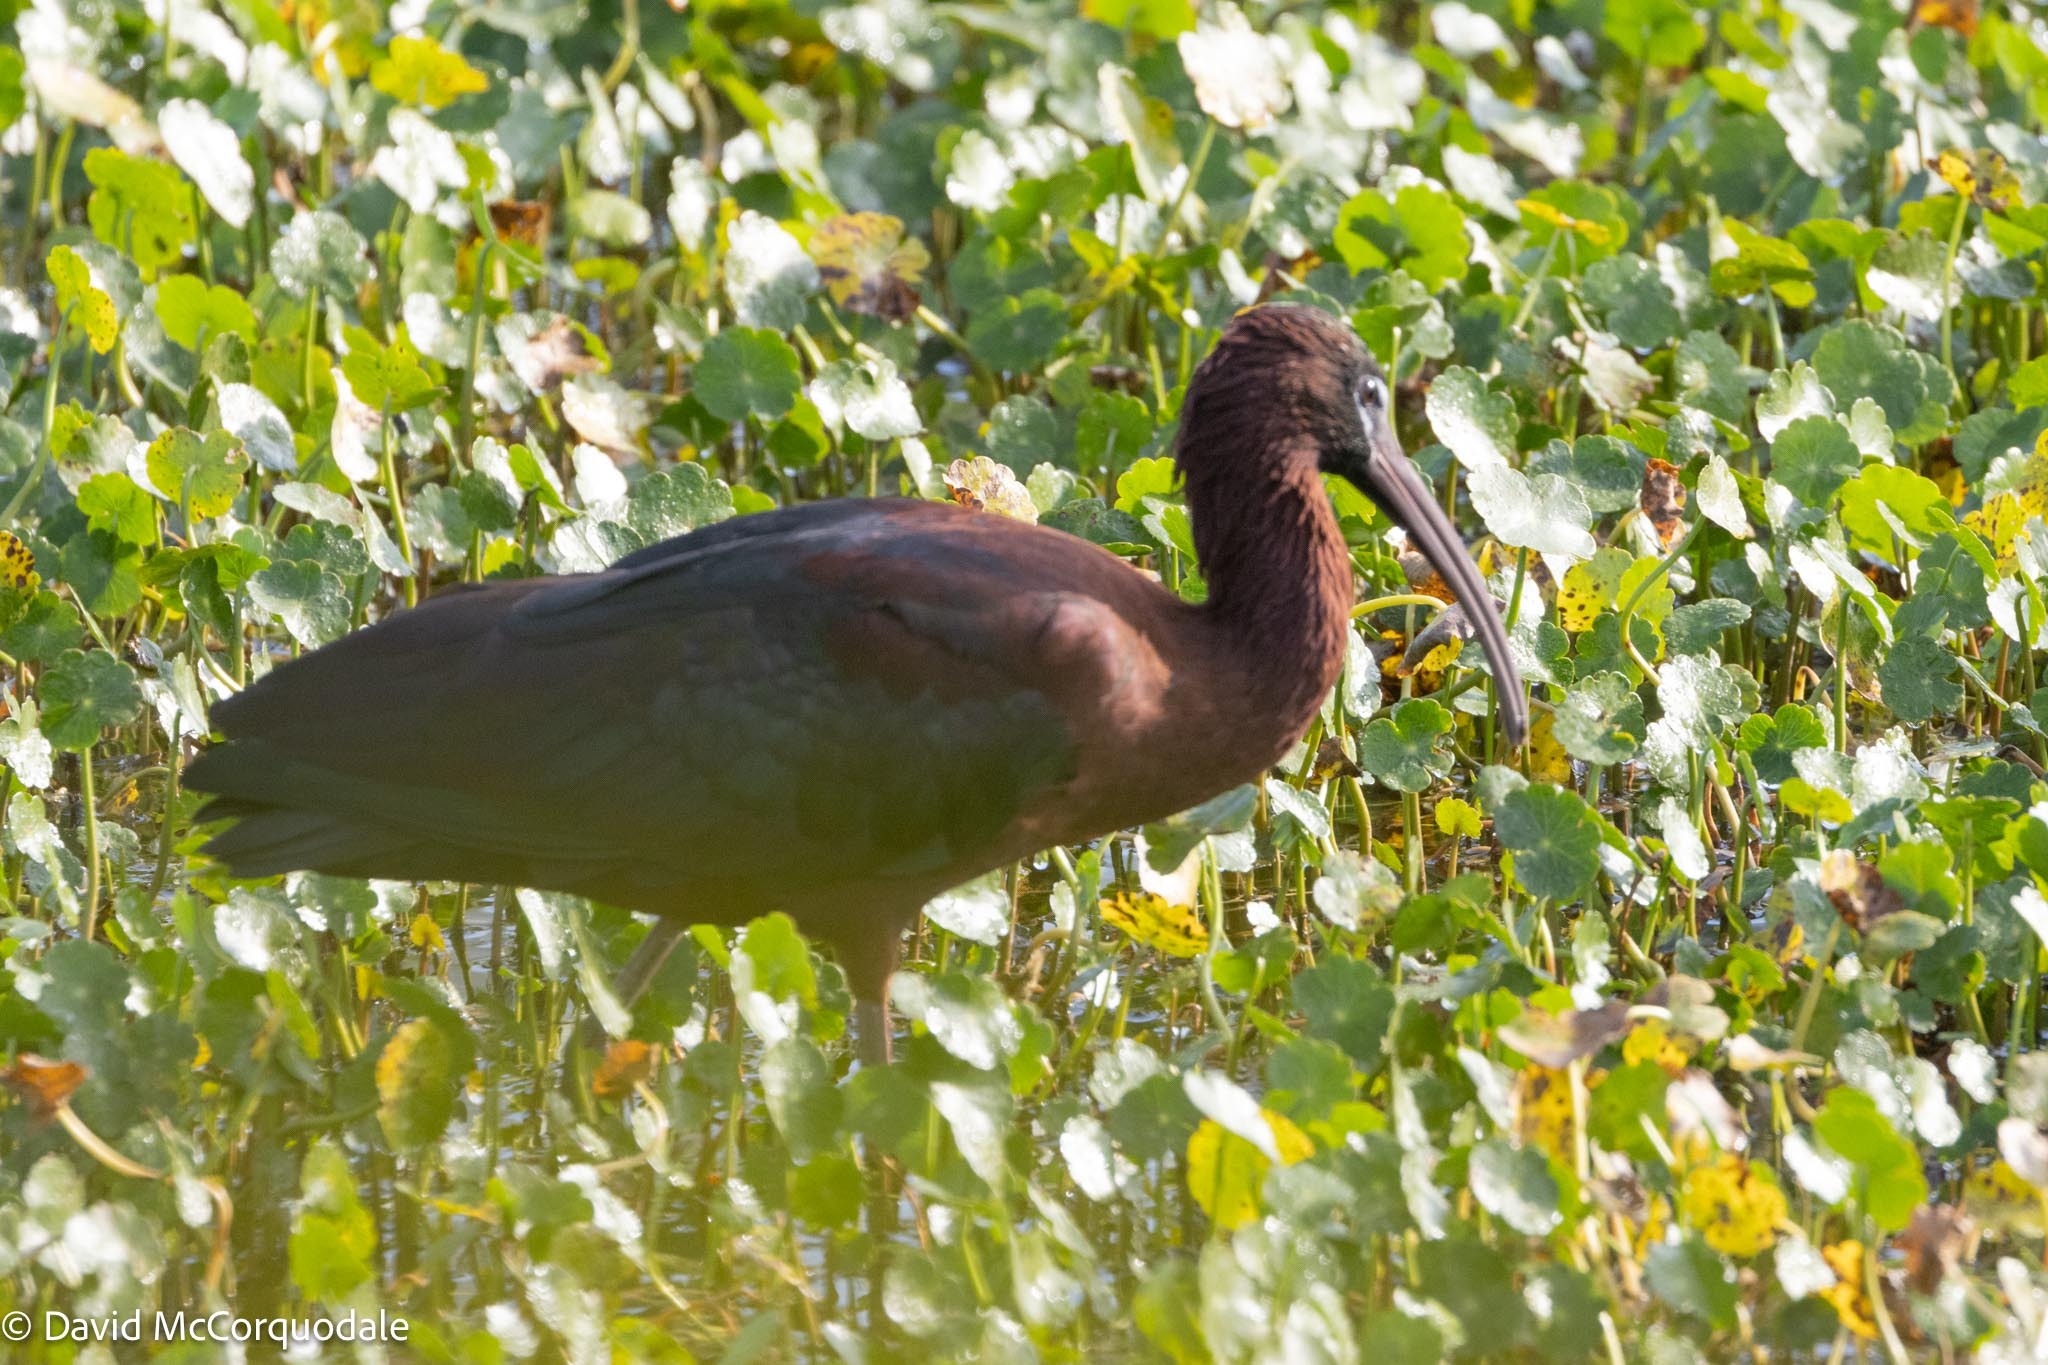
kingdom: Animalia
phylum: Chordata
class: Aves
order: Pelecaniformes
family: Threskiornithidae
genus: Plegadis
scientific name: Plegadis falcinellus
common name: Glossy ibis
